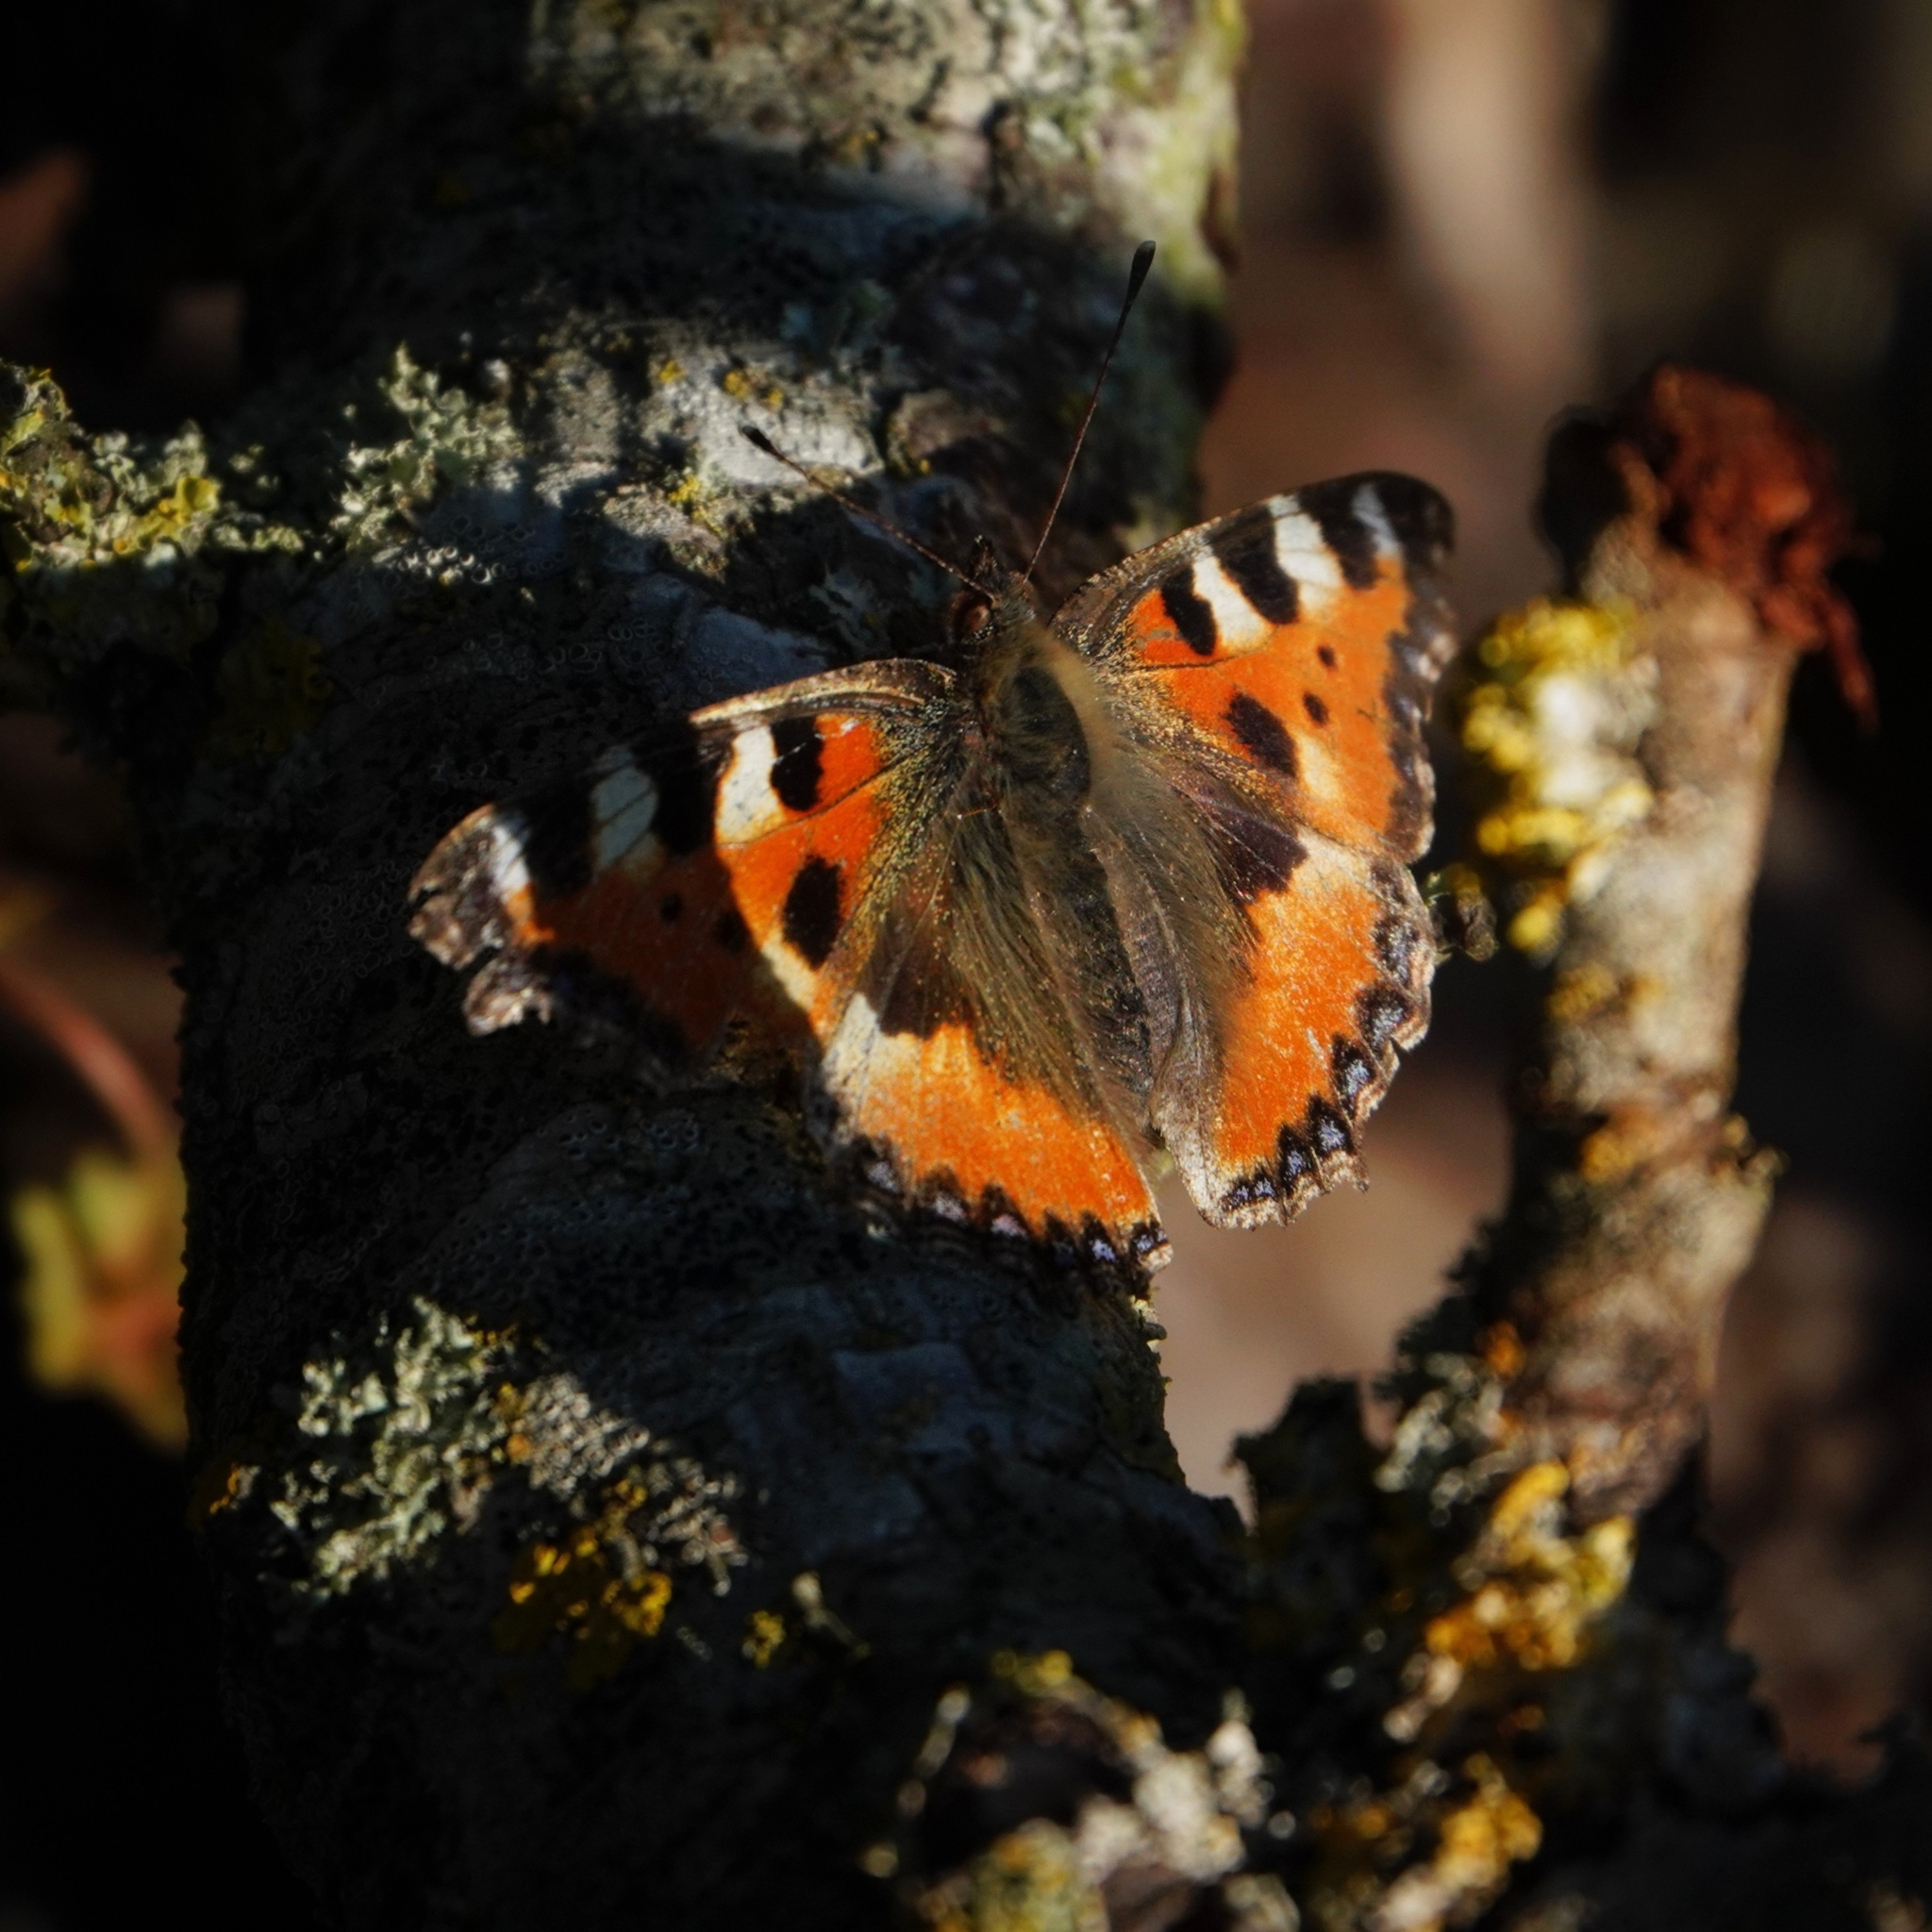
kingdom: Animalia
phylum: Arthropoda
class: Insecta
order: Lepidoptera
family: Nymphalidae
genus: Aglais
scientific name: Aglais urticae
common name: Small tortoiseshell
